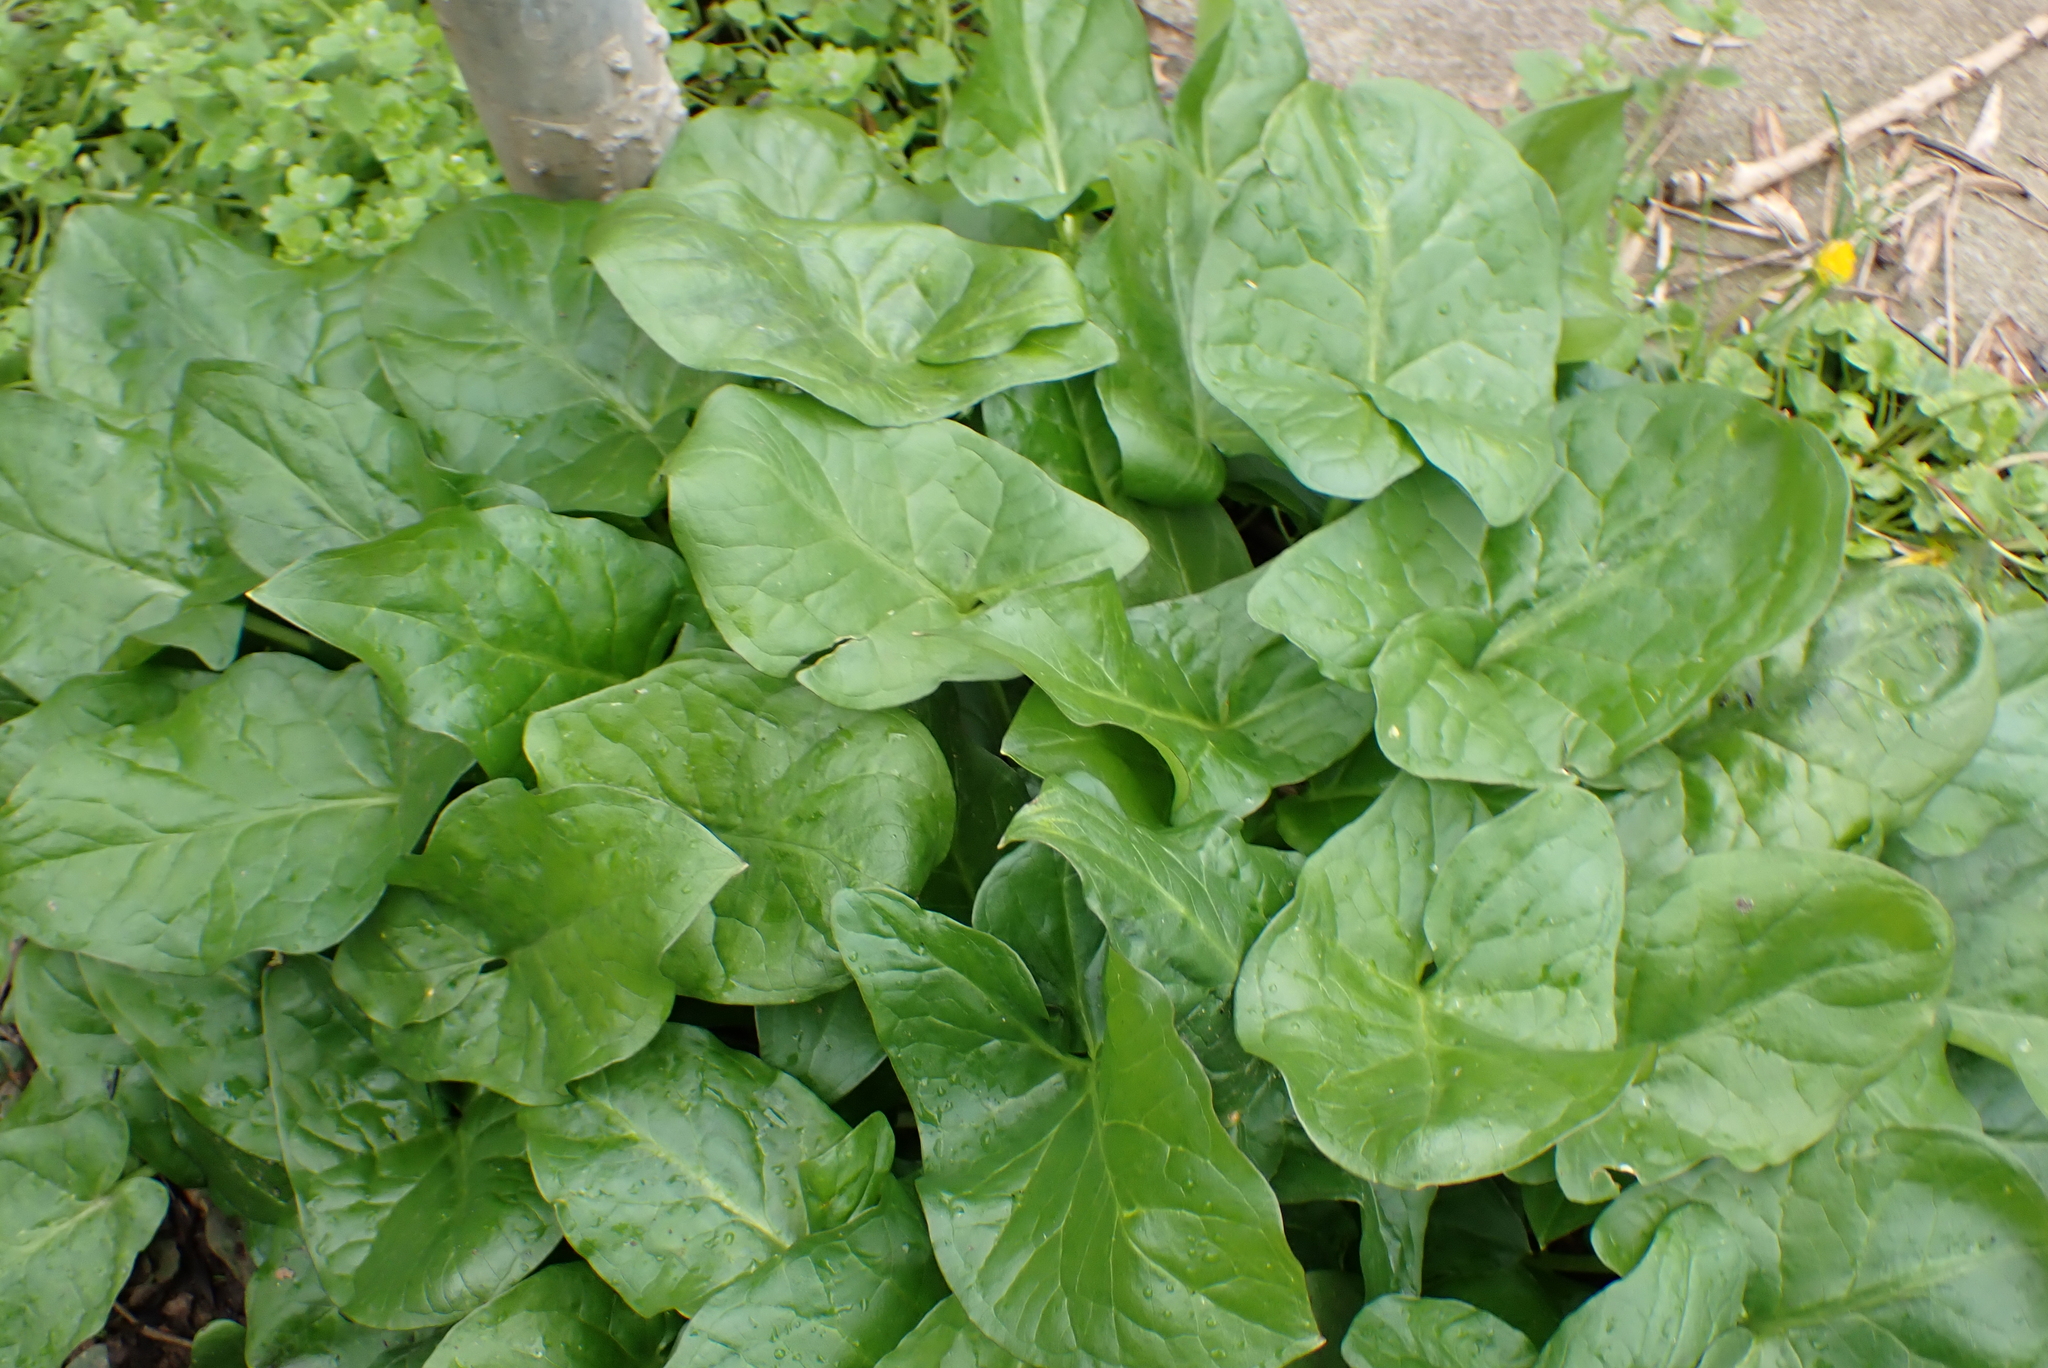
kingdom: Plantae
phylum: Tracheophyta
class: Liliopsida
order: Alismatales
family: Araceae
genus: Arum
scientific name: Arum maculatum
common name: Lords-and-ladies
